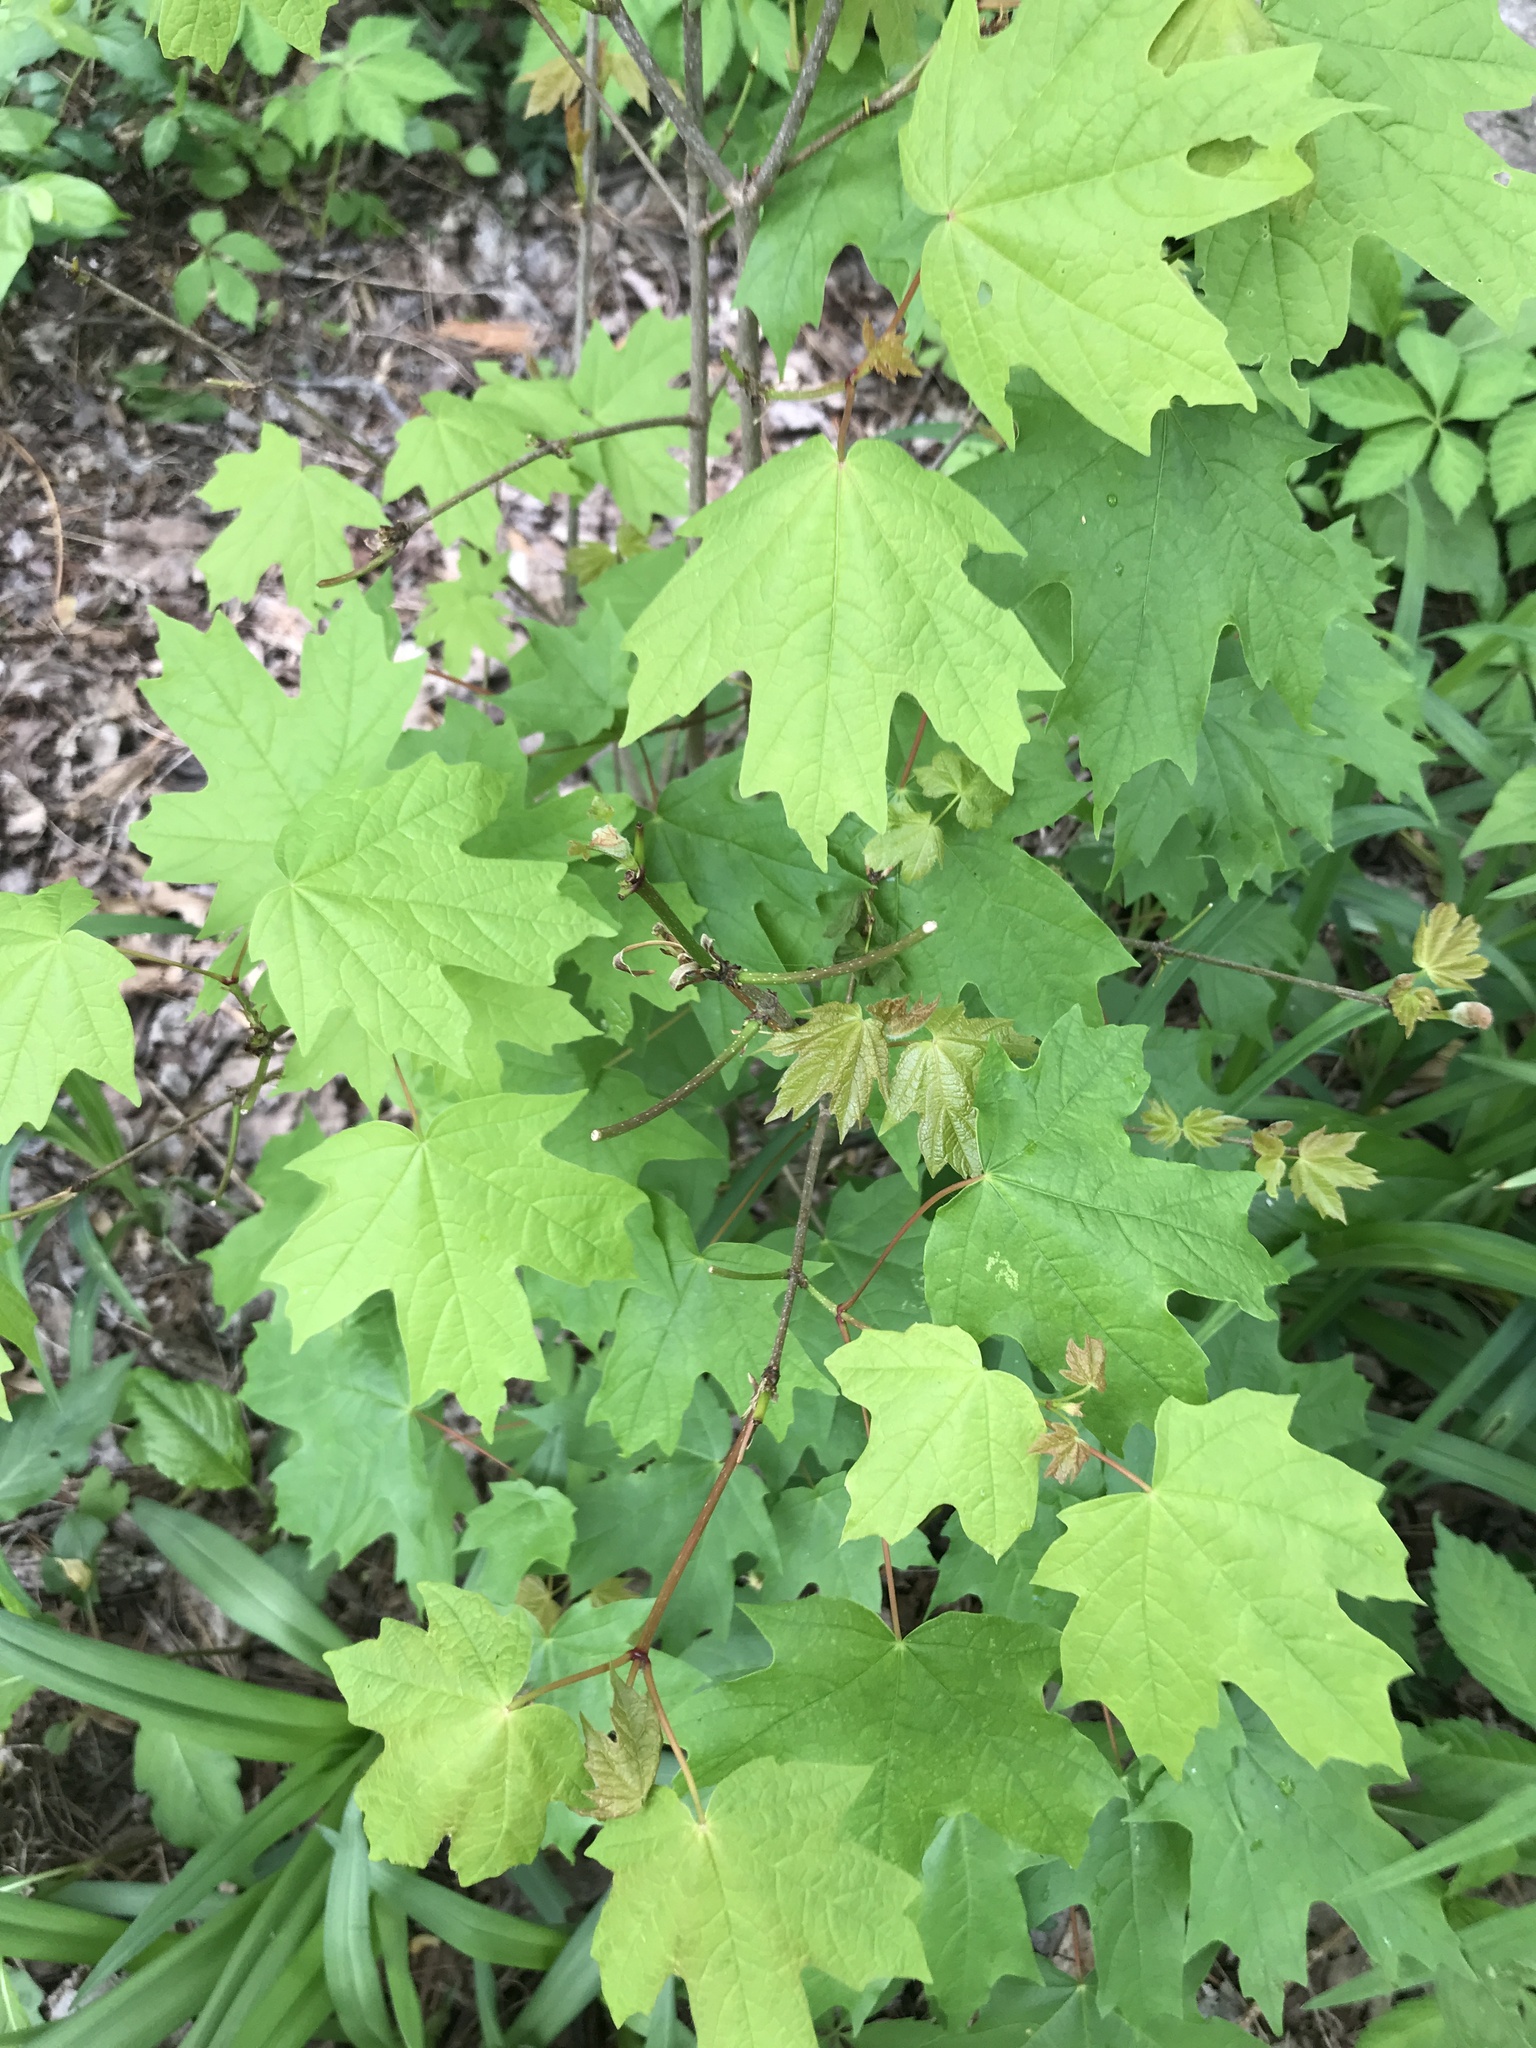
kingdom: Plantae
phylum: Tracheophyta
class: Magnoliopsida
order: Sapindales
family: Sapindaceae
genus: Acer
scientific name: Acer saccharum
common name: Sugar maple
